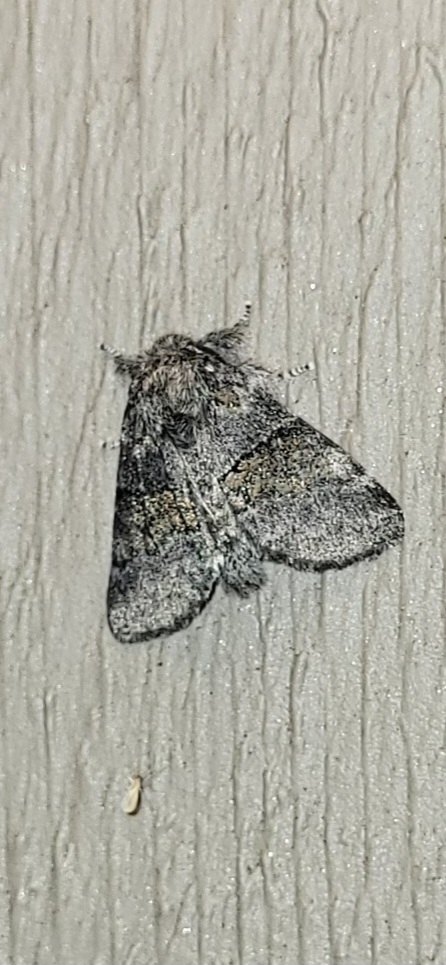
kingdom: Animalia
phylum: Arthropoda
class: Insecta
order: Lepidoptera
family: Notodontidae
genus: Gluphisia
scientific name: Gluphisia septentrionis
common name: Common gluphisia
